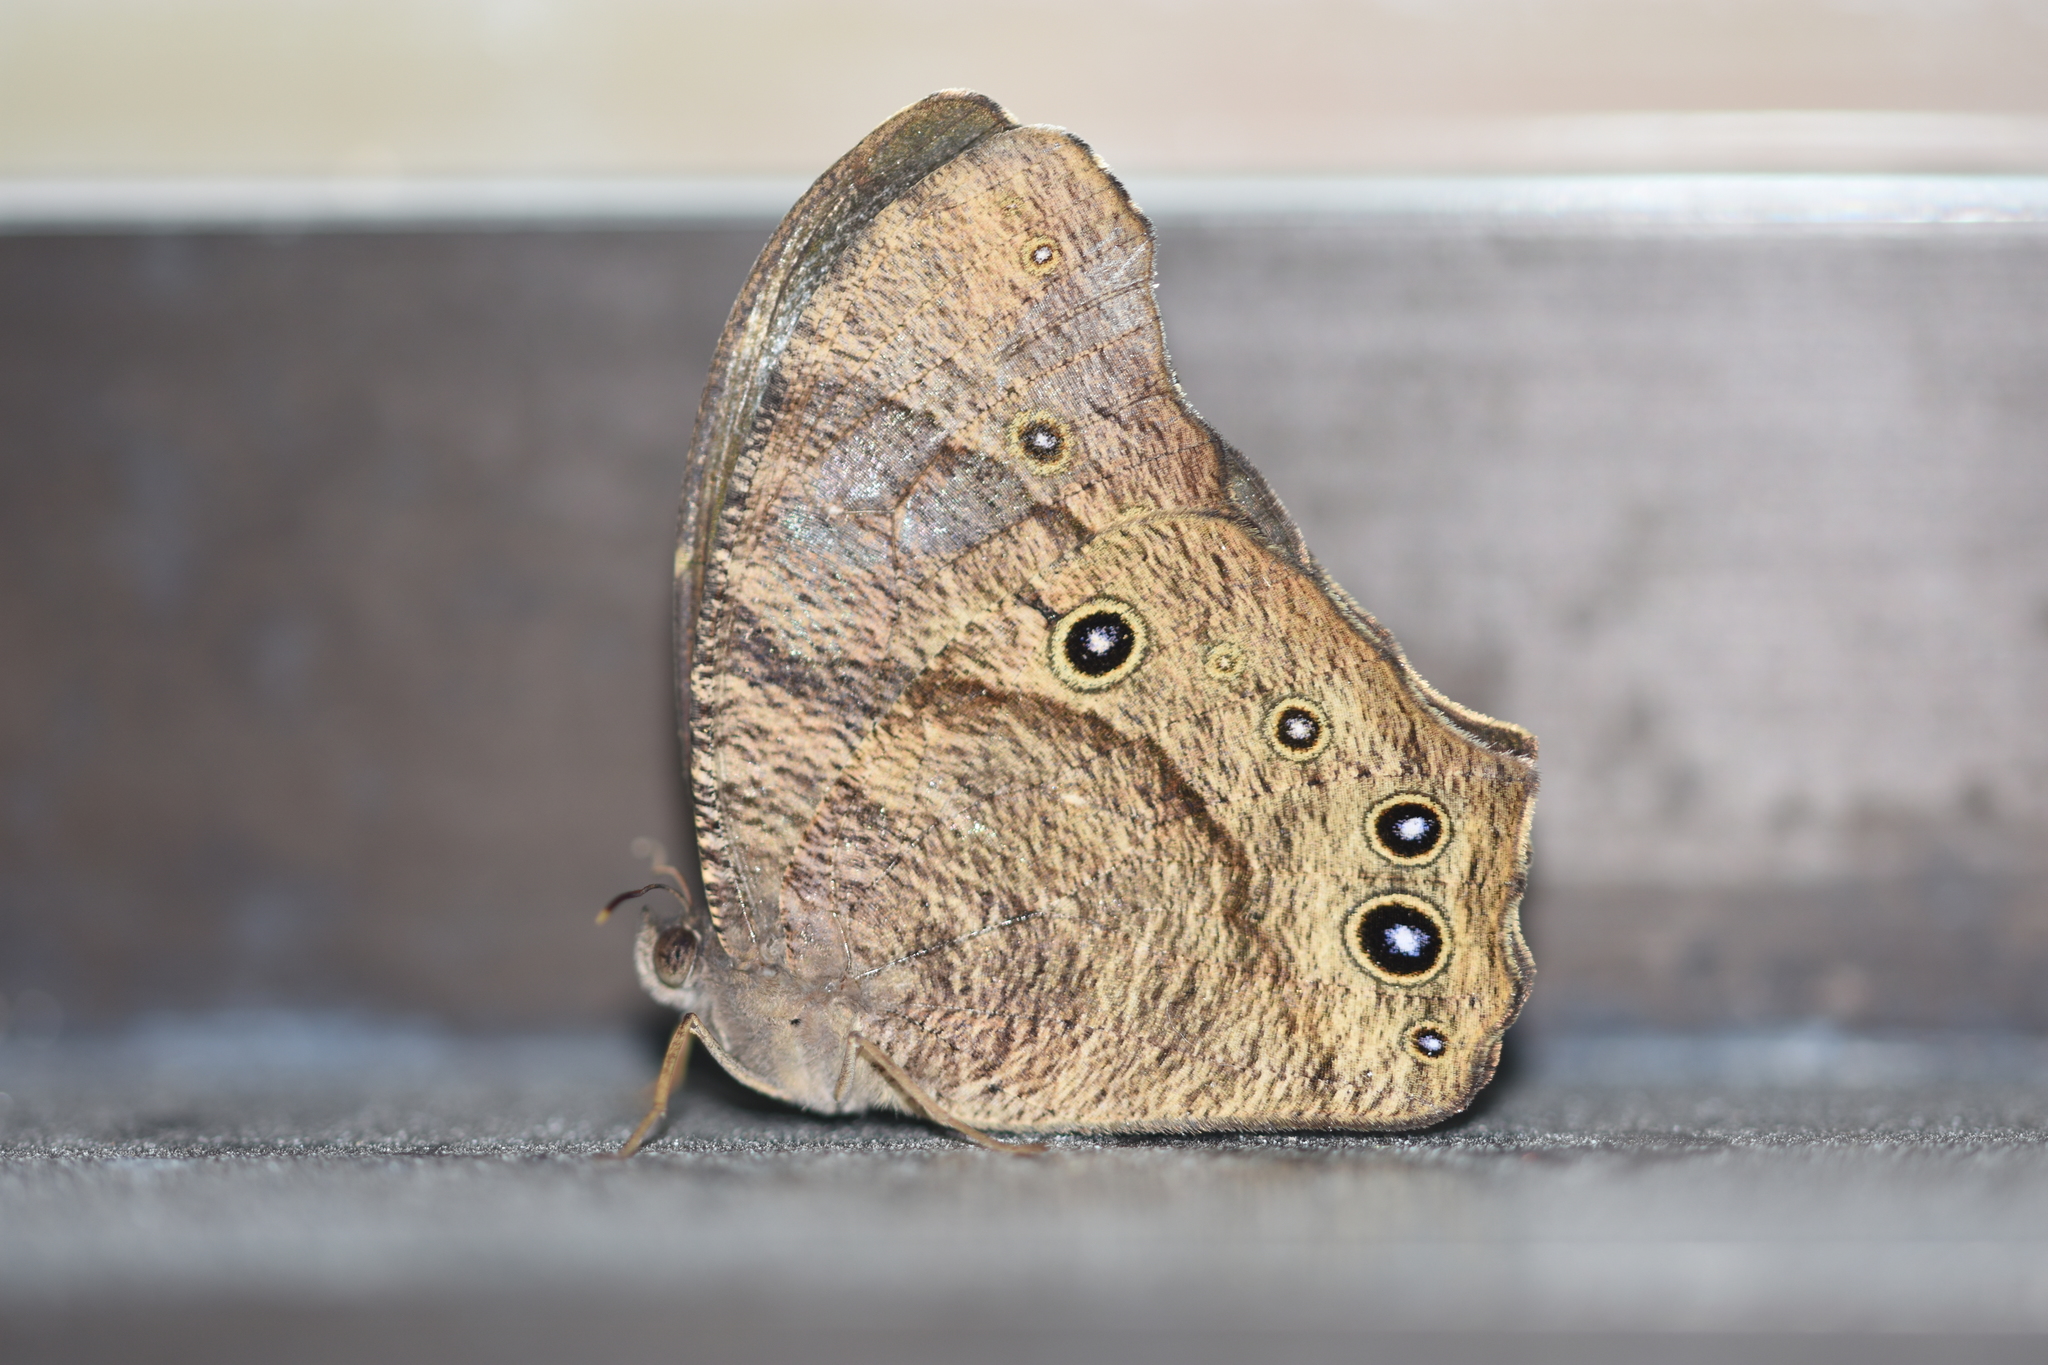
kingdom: Animalia
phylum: Arthropoda
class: Insecta
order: Lepidoptera
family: Nymphalidae
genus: Melanitis
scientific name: Melanitis leda
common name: Twilight brown
